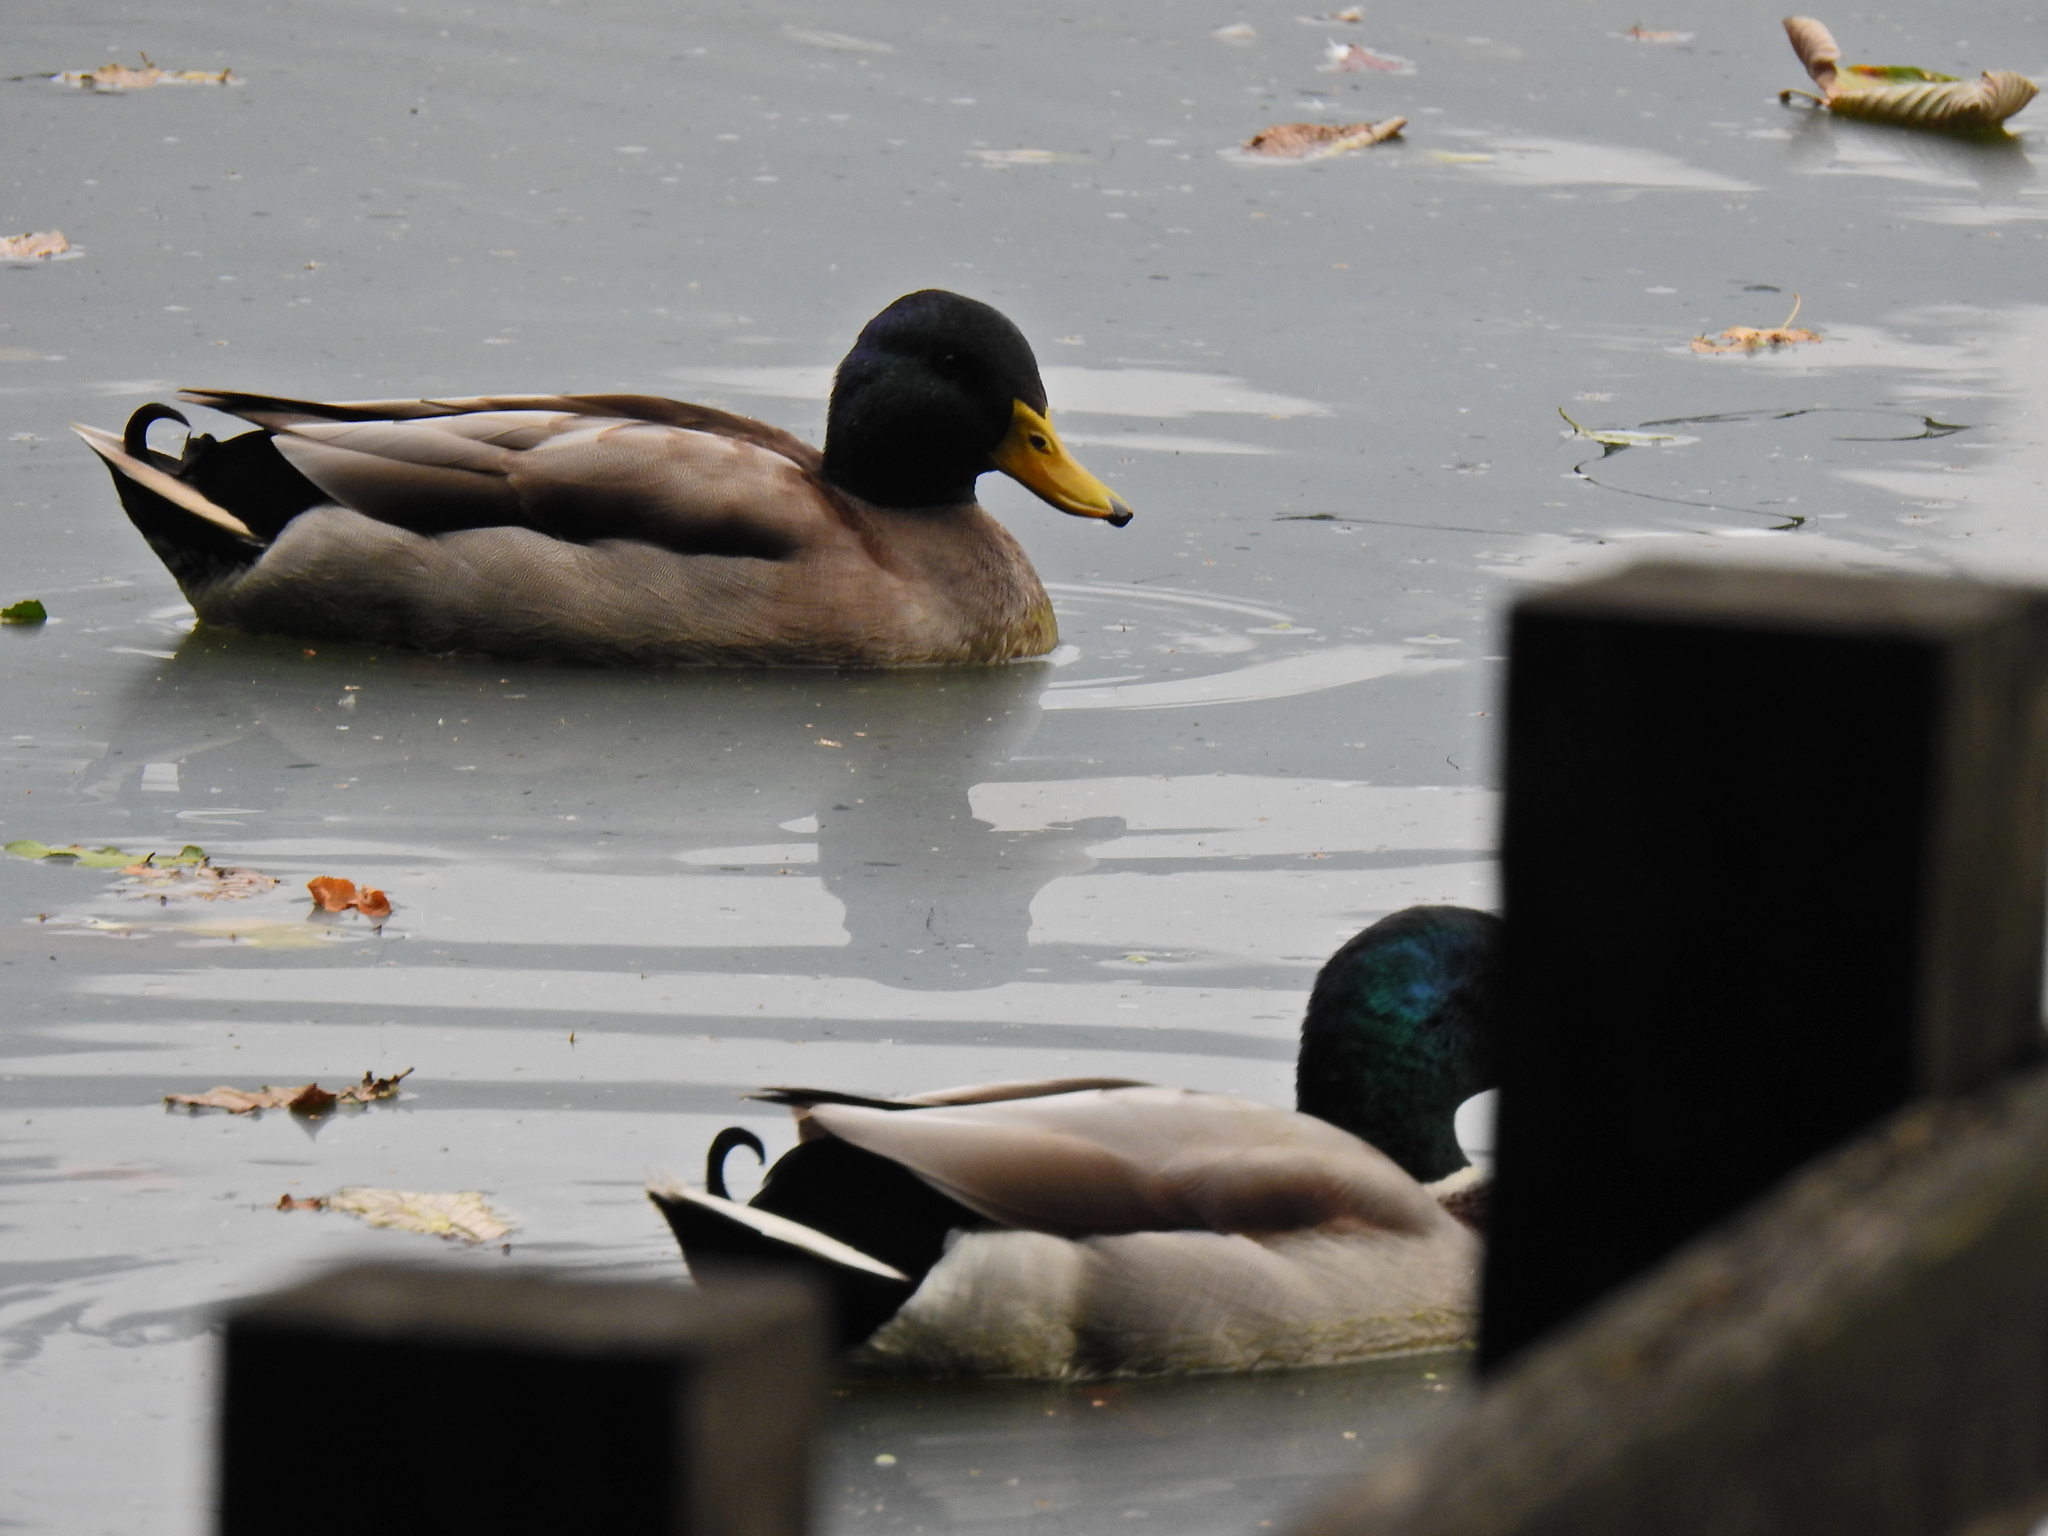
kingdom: Animalia
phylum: Chordata
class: Aves
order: Anseriformes
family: Anatidae
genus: Anas
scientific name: Anas platyrhynchos
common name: Mallard
